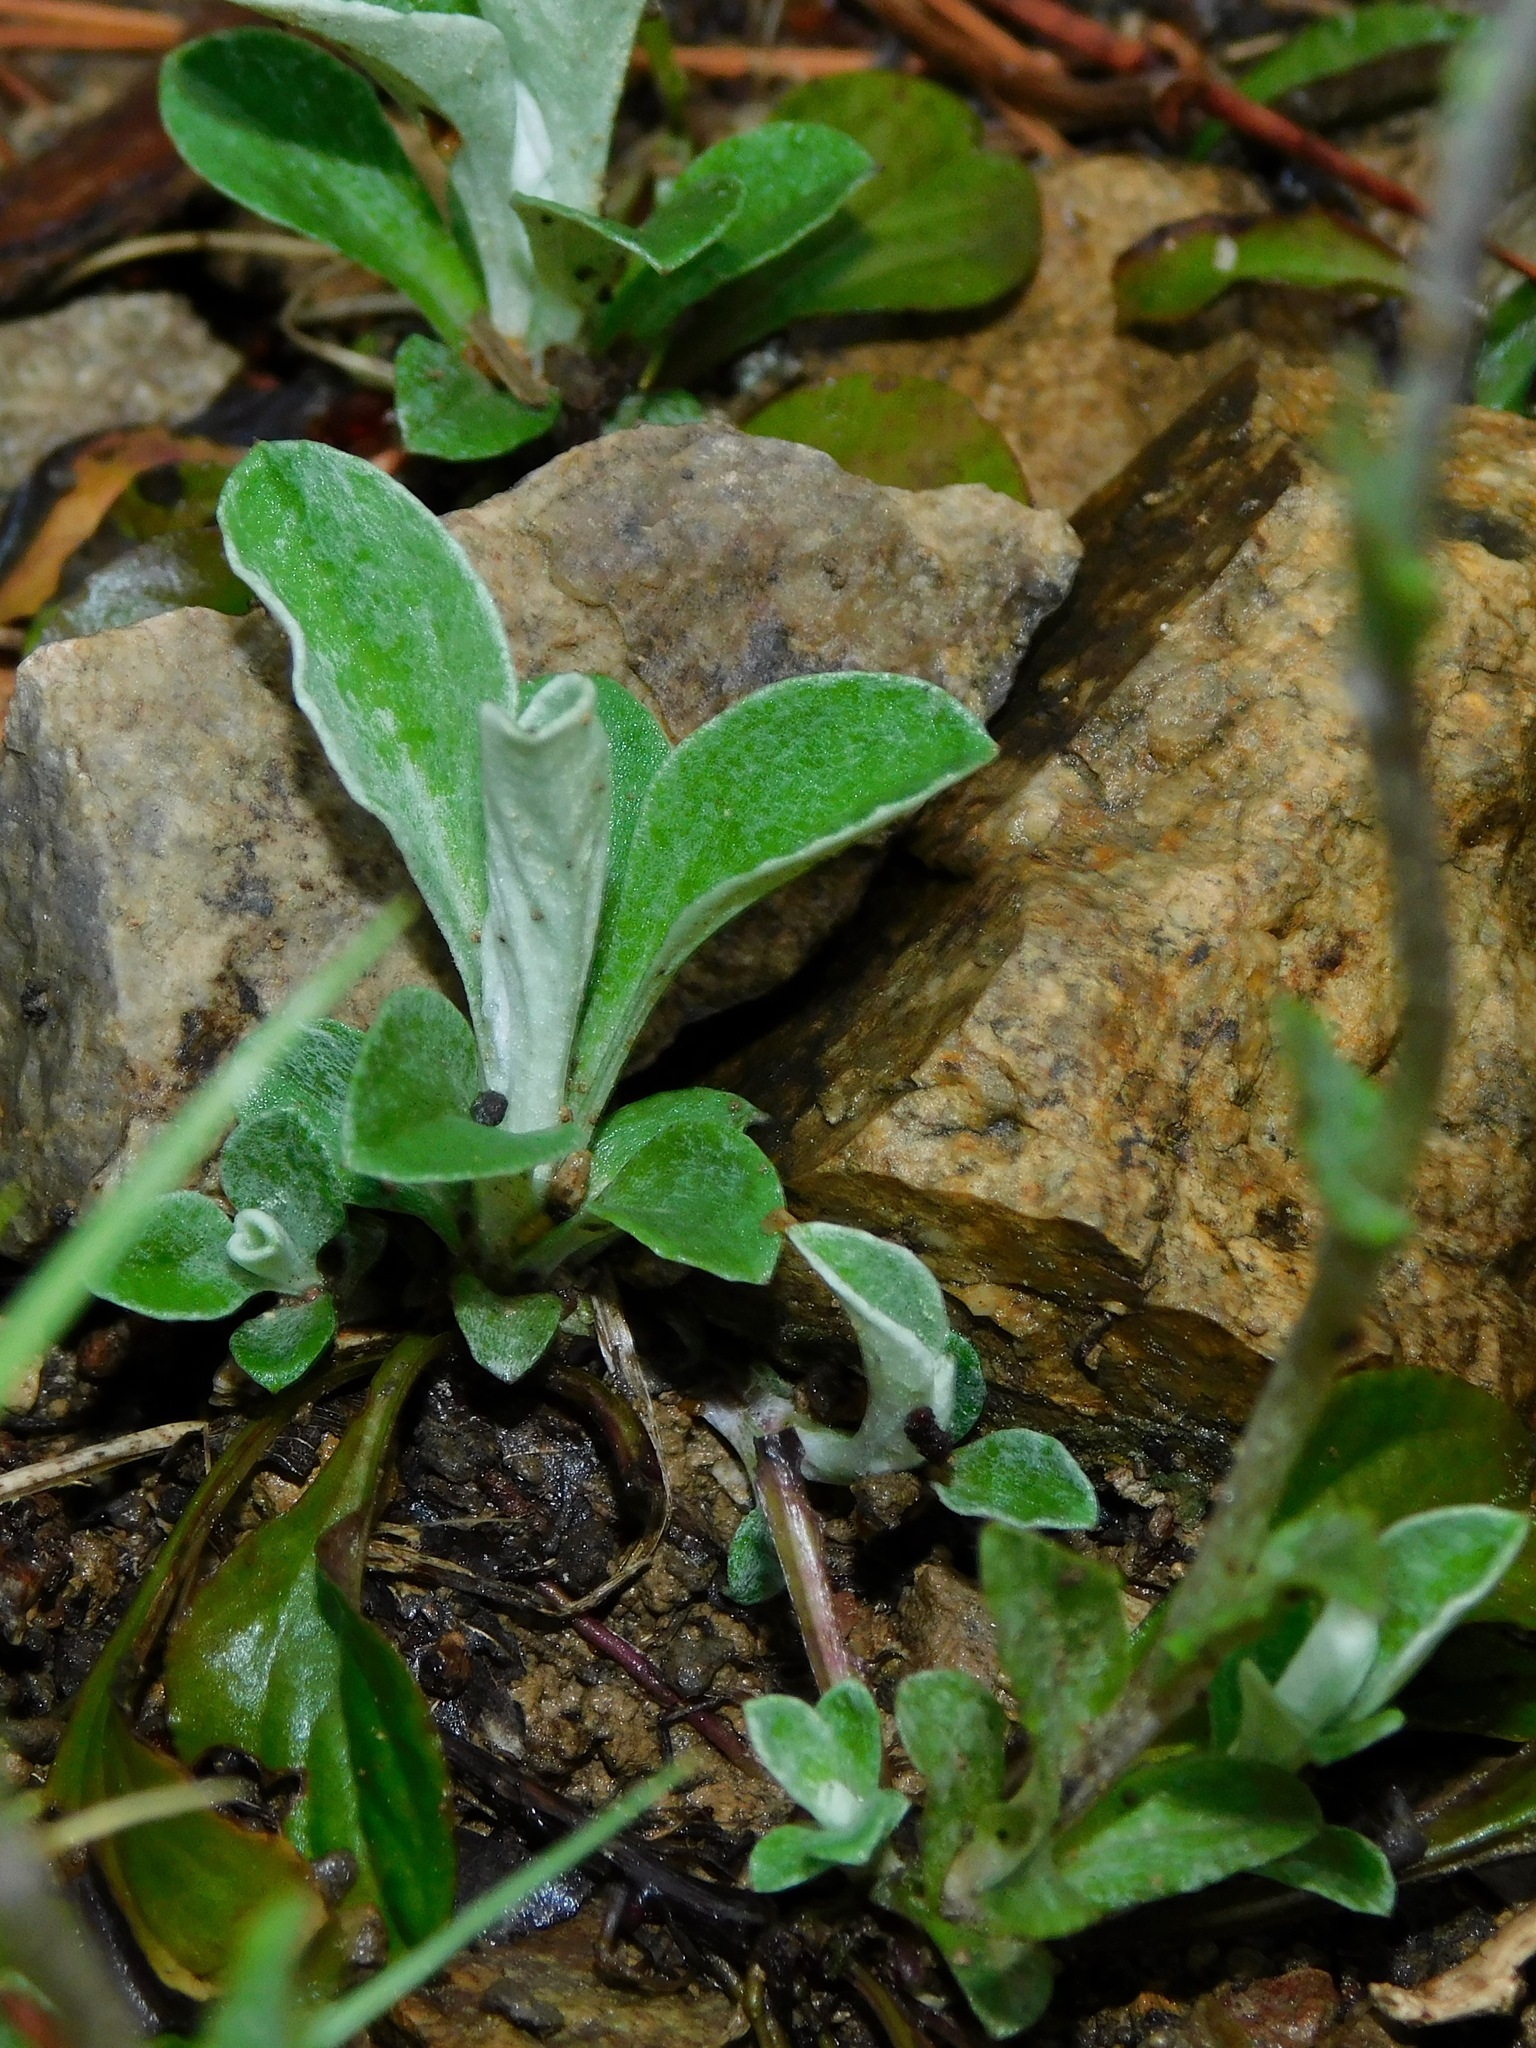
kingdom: Plantae
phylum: Tracheophyta
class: Magnoliopsida
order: Asterales
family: Asteraceae
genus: Antennaria
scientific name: Antennaria plantaginifolia
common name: Plantain-leaved pussytoes
